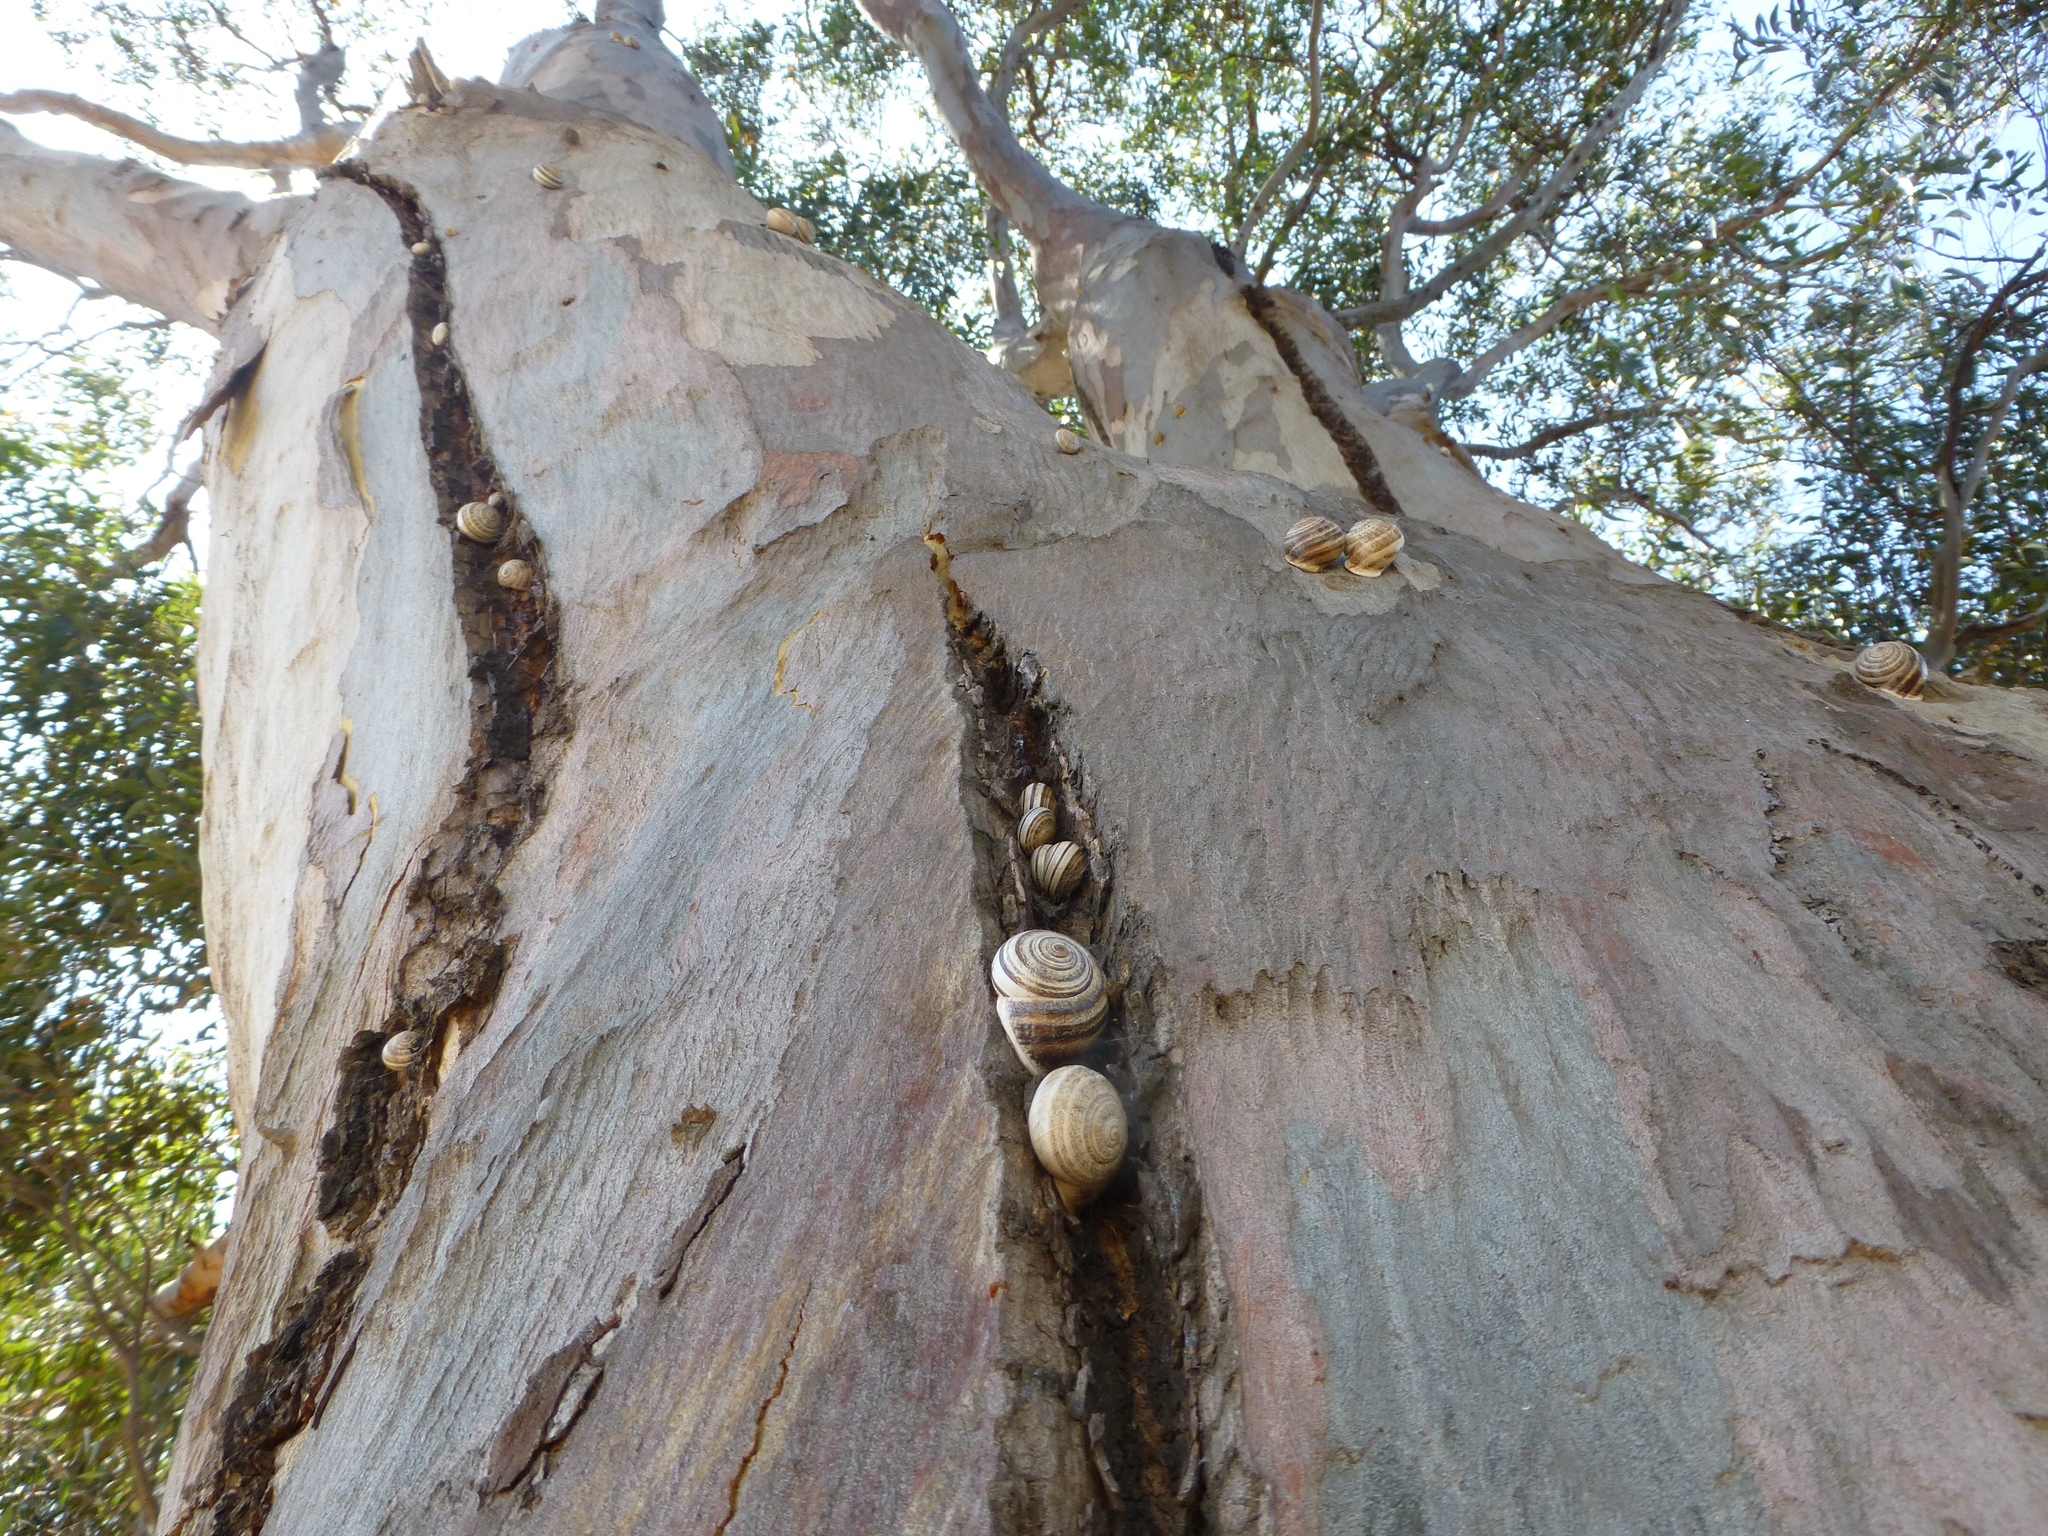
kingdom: Animalia
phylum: Mollusca
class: Gastropoda
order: Stylommatophora
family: Helicidae
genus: Otala
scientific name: Otala lactea
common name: Milk snail
